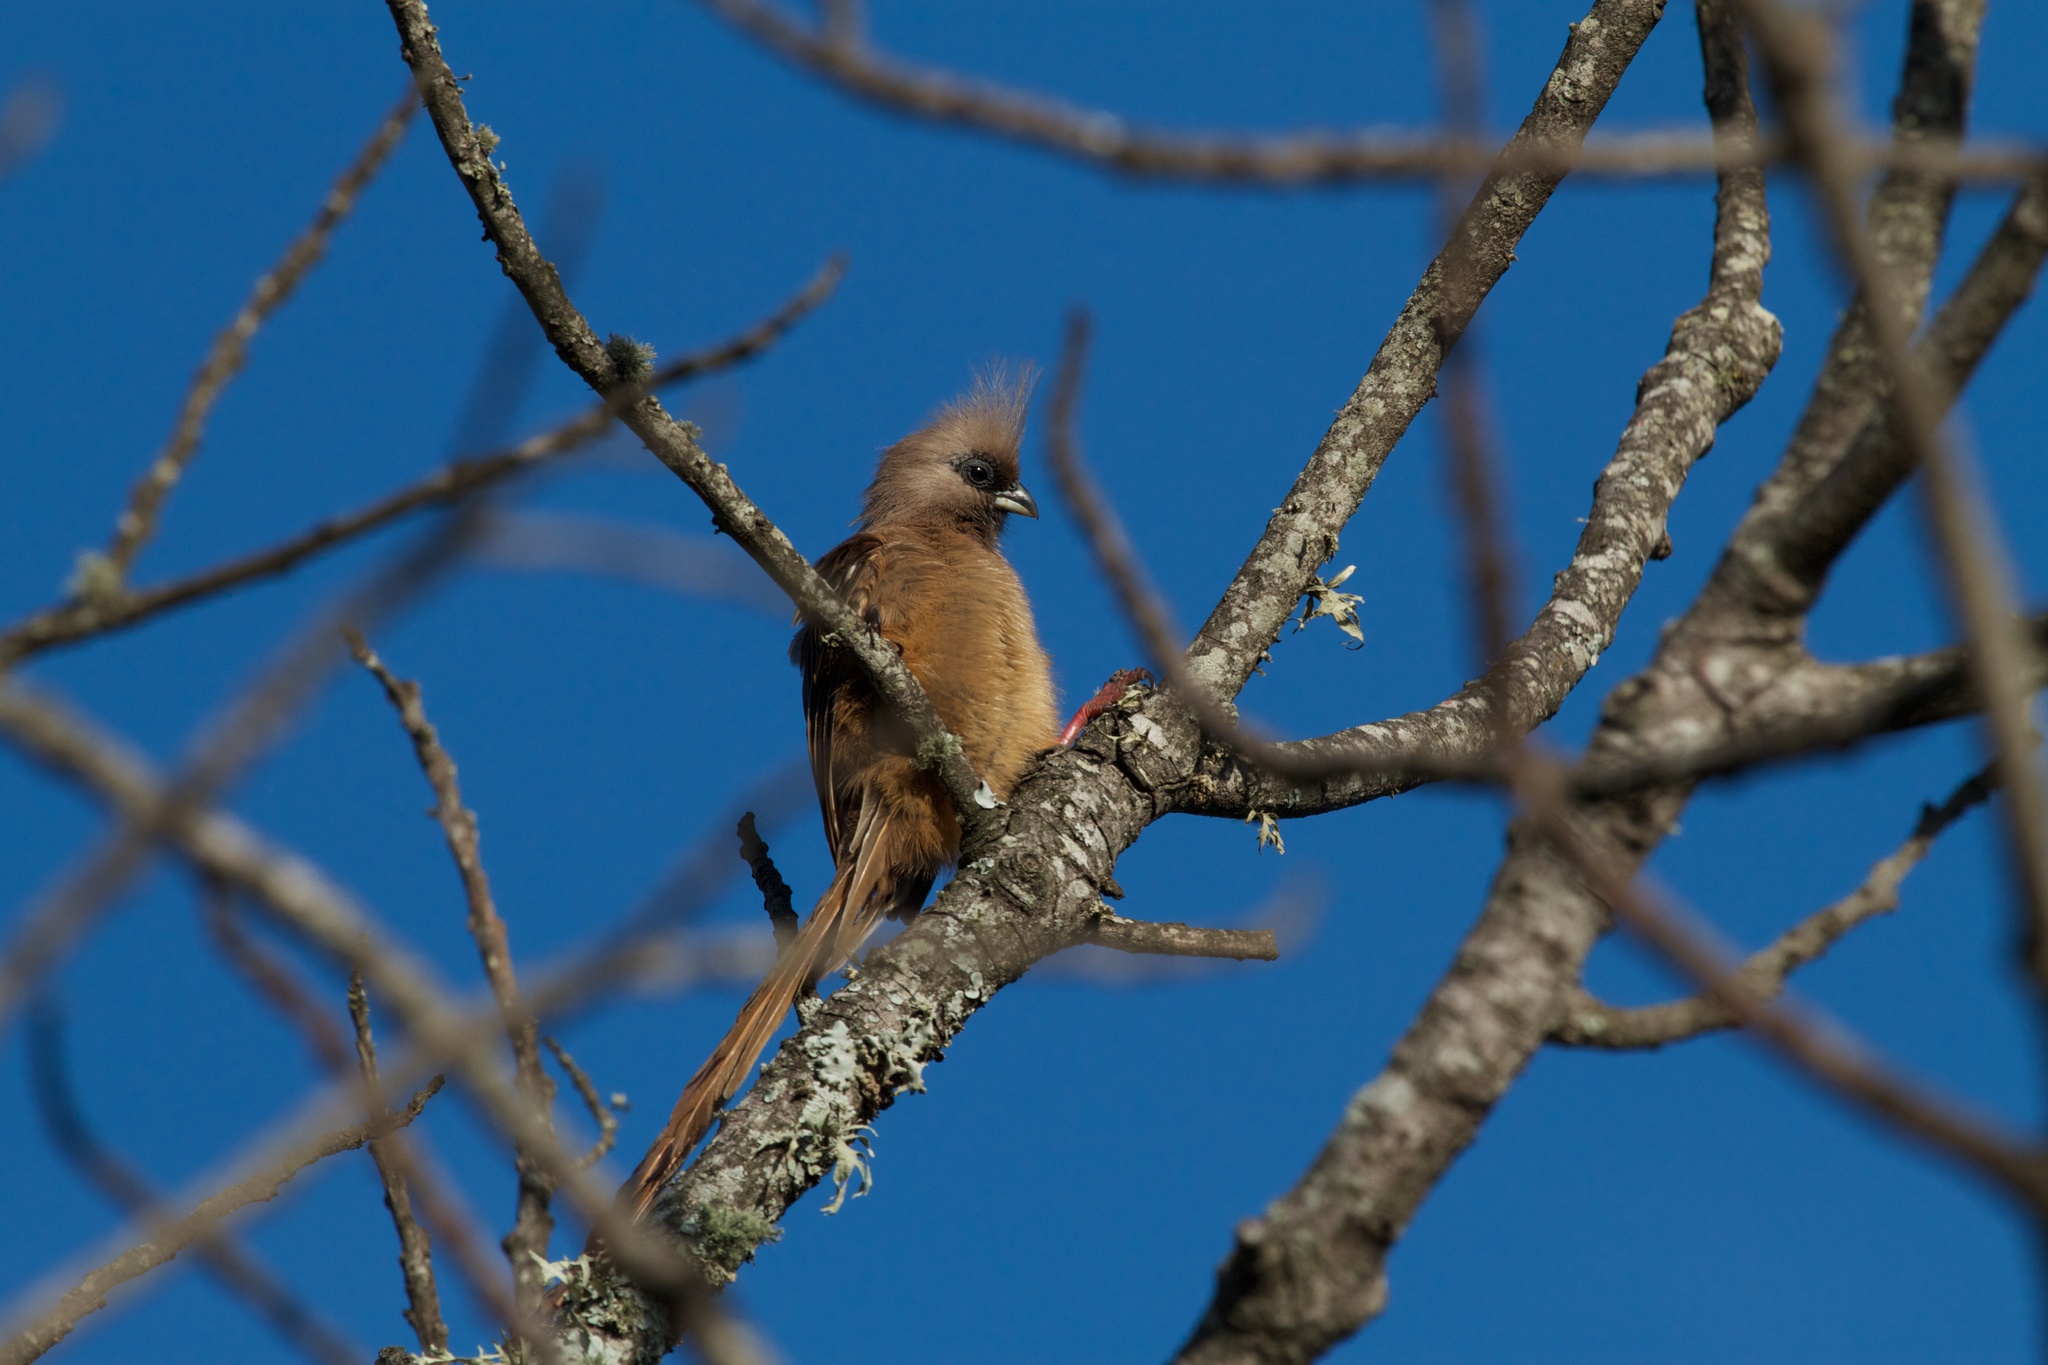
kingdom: Animalia
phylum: Chordata
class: Aves
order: Coliiformes
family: Coliidae
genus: Colius
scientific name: Colius striatus
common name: Speckled mousebird
